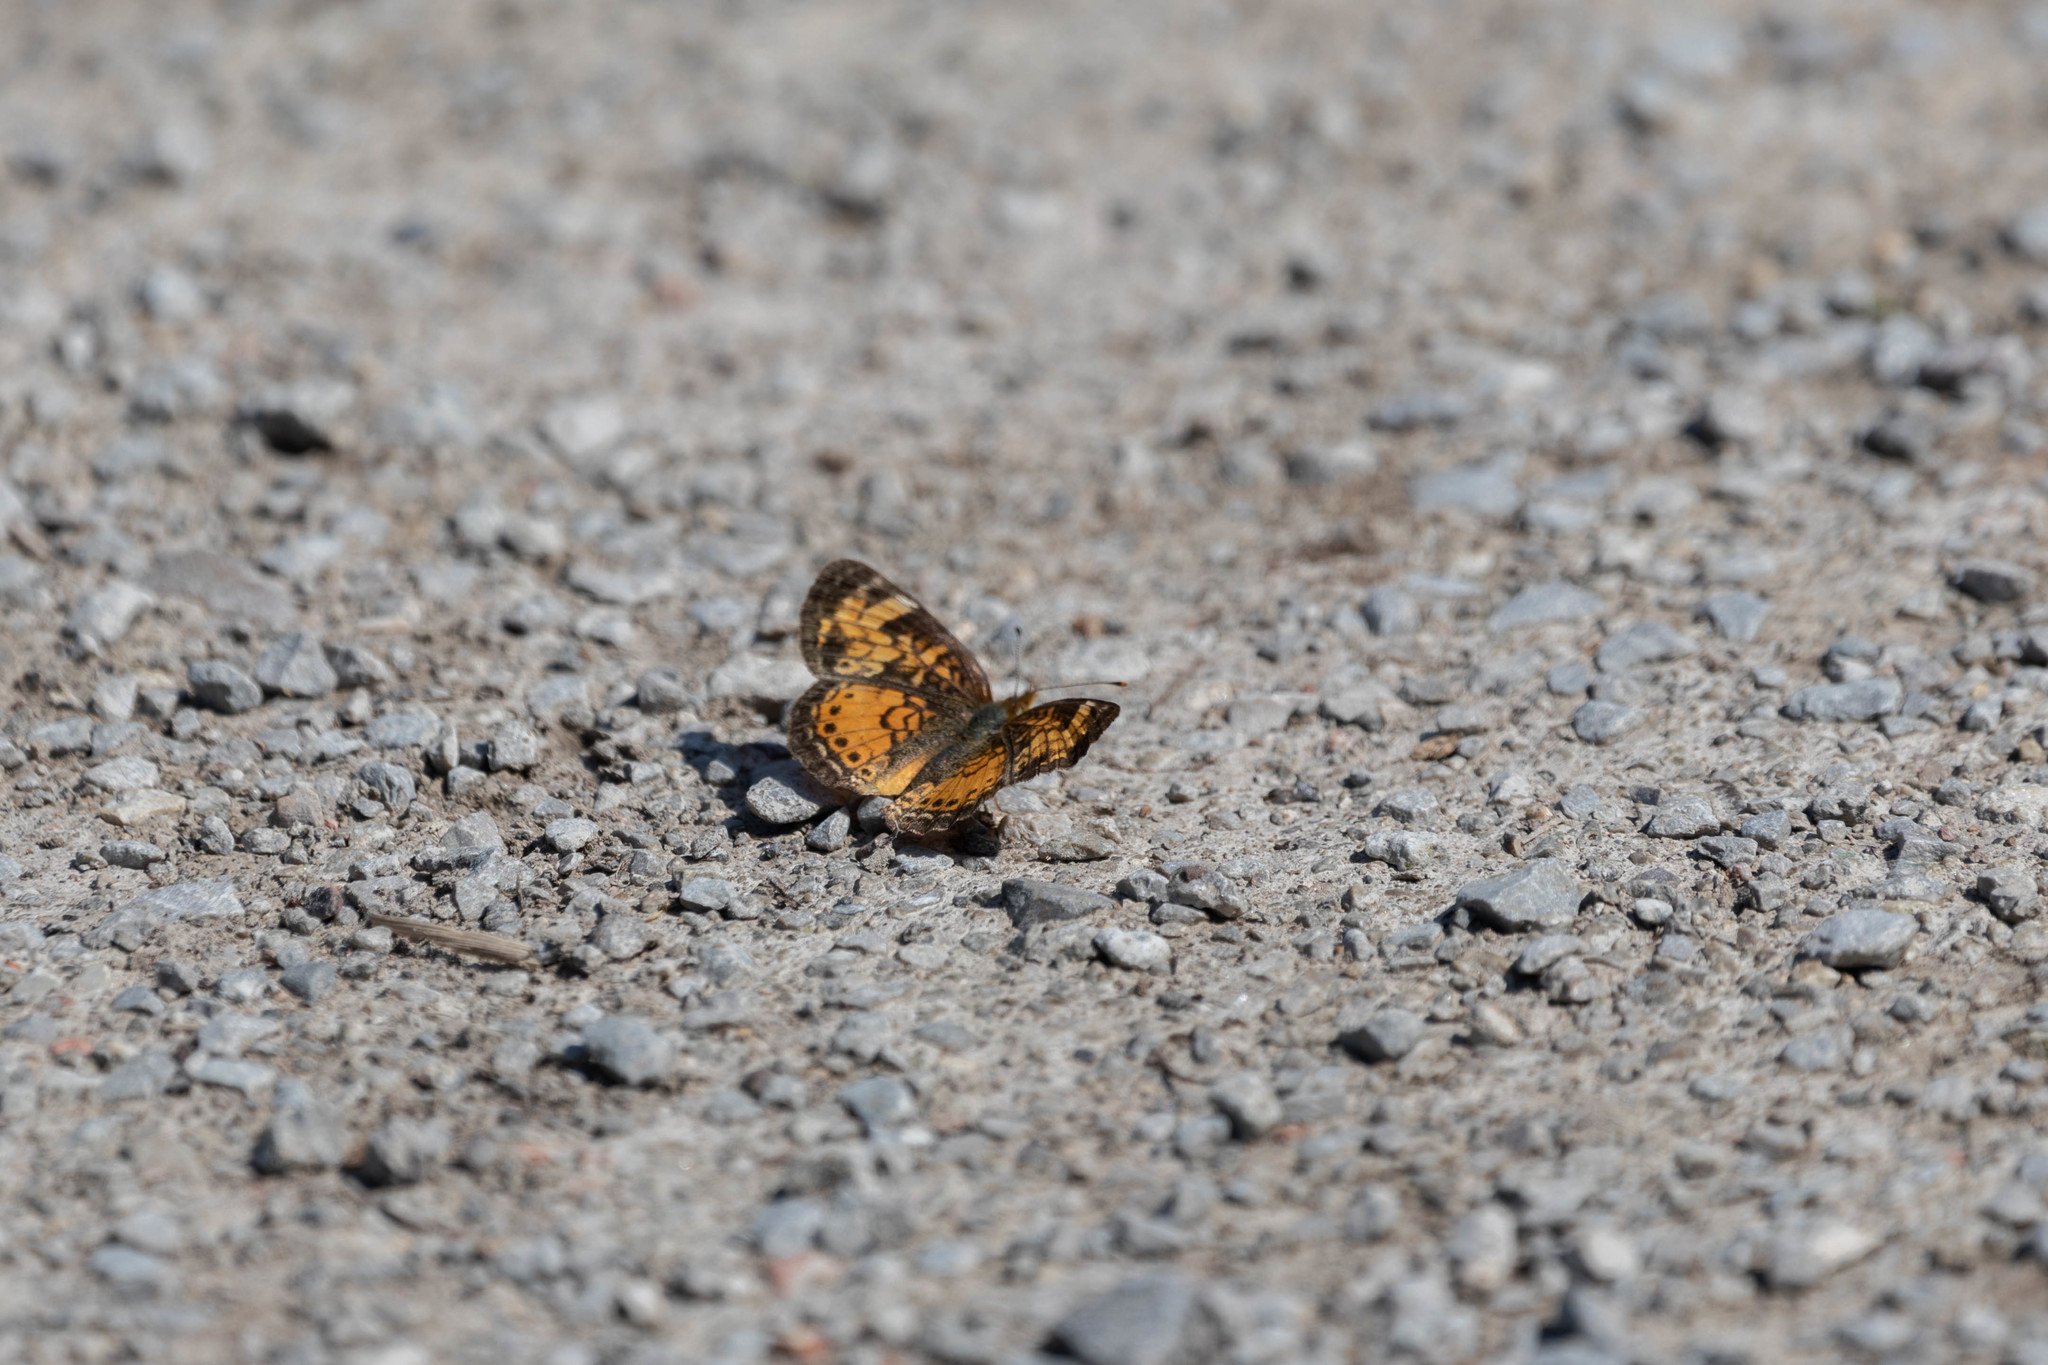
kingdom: Animalia
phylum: Arthropoda
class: Insecta
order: Lepidoptera
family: Nymphalidae
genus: Phyciodes
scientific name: Phyciodes tharos
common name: Pearl crescent
